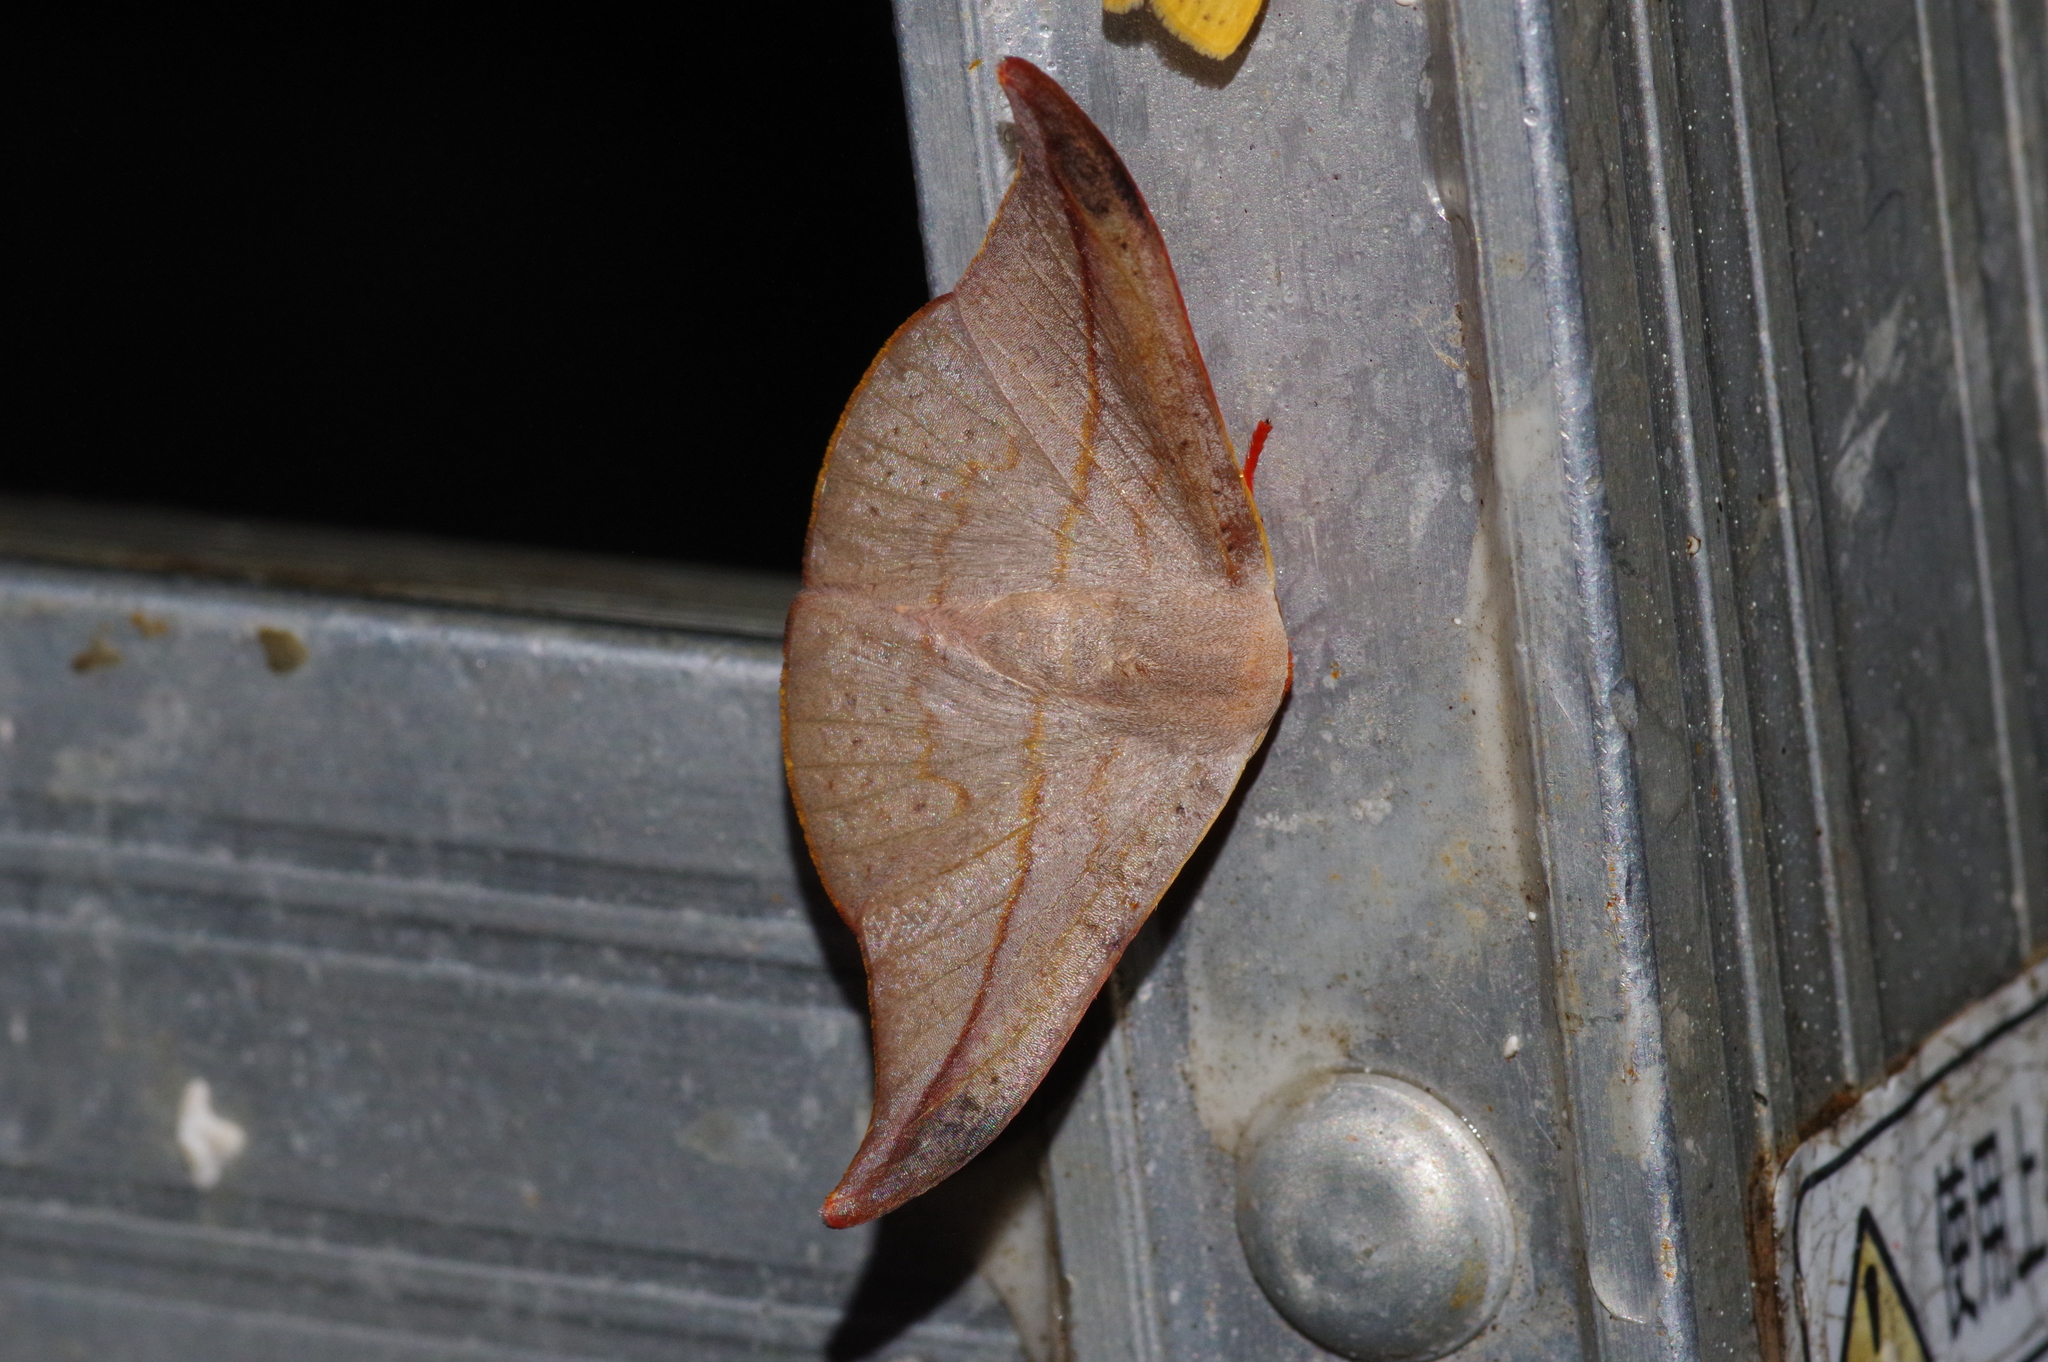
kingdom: Animalia
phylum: Arthropoda
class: Insecta
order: Lepidoptera
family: Drepanidae
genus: Oreta
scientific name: Oreta insignis
